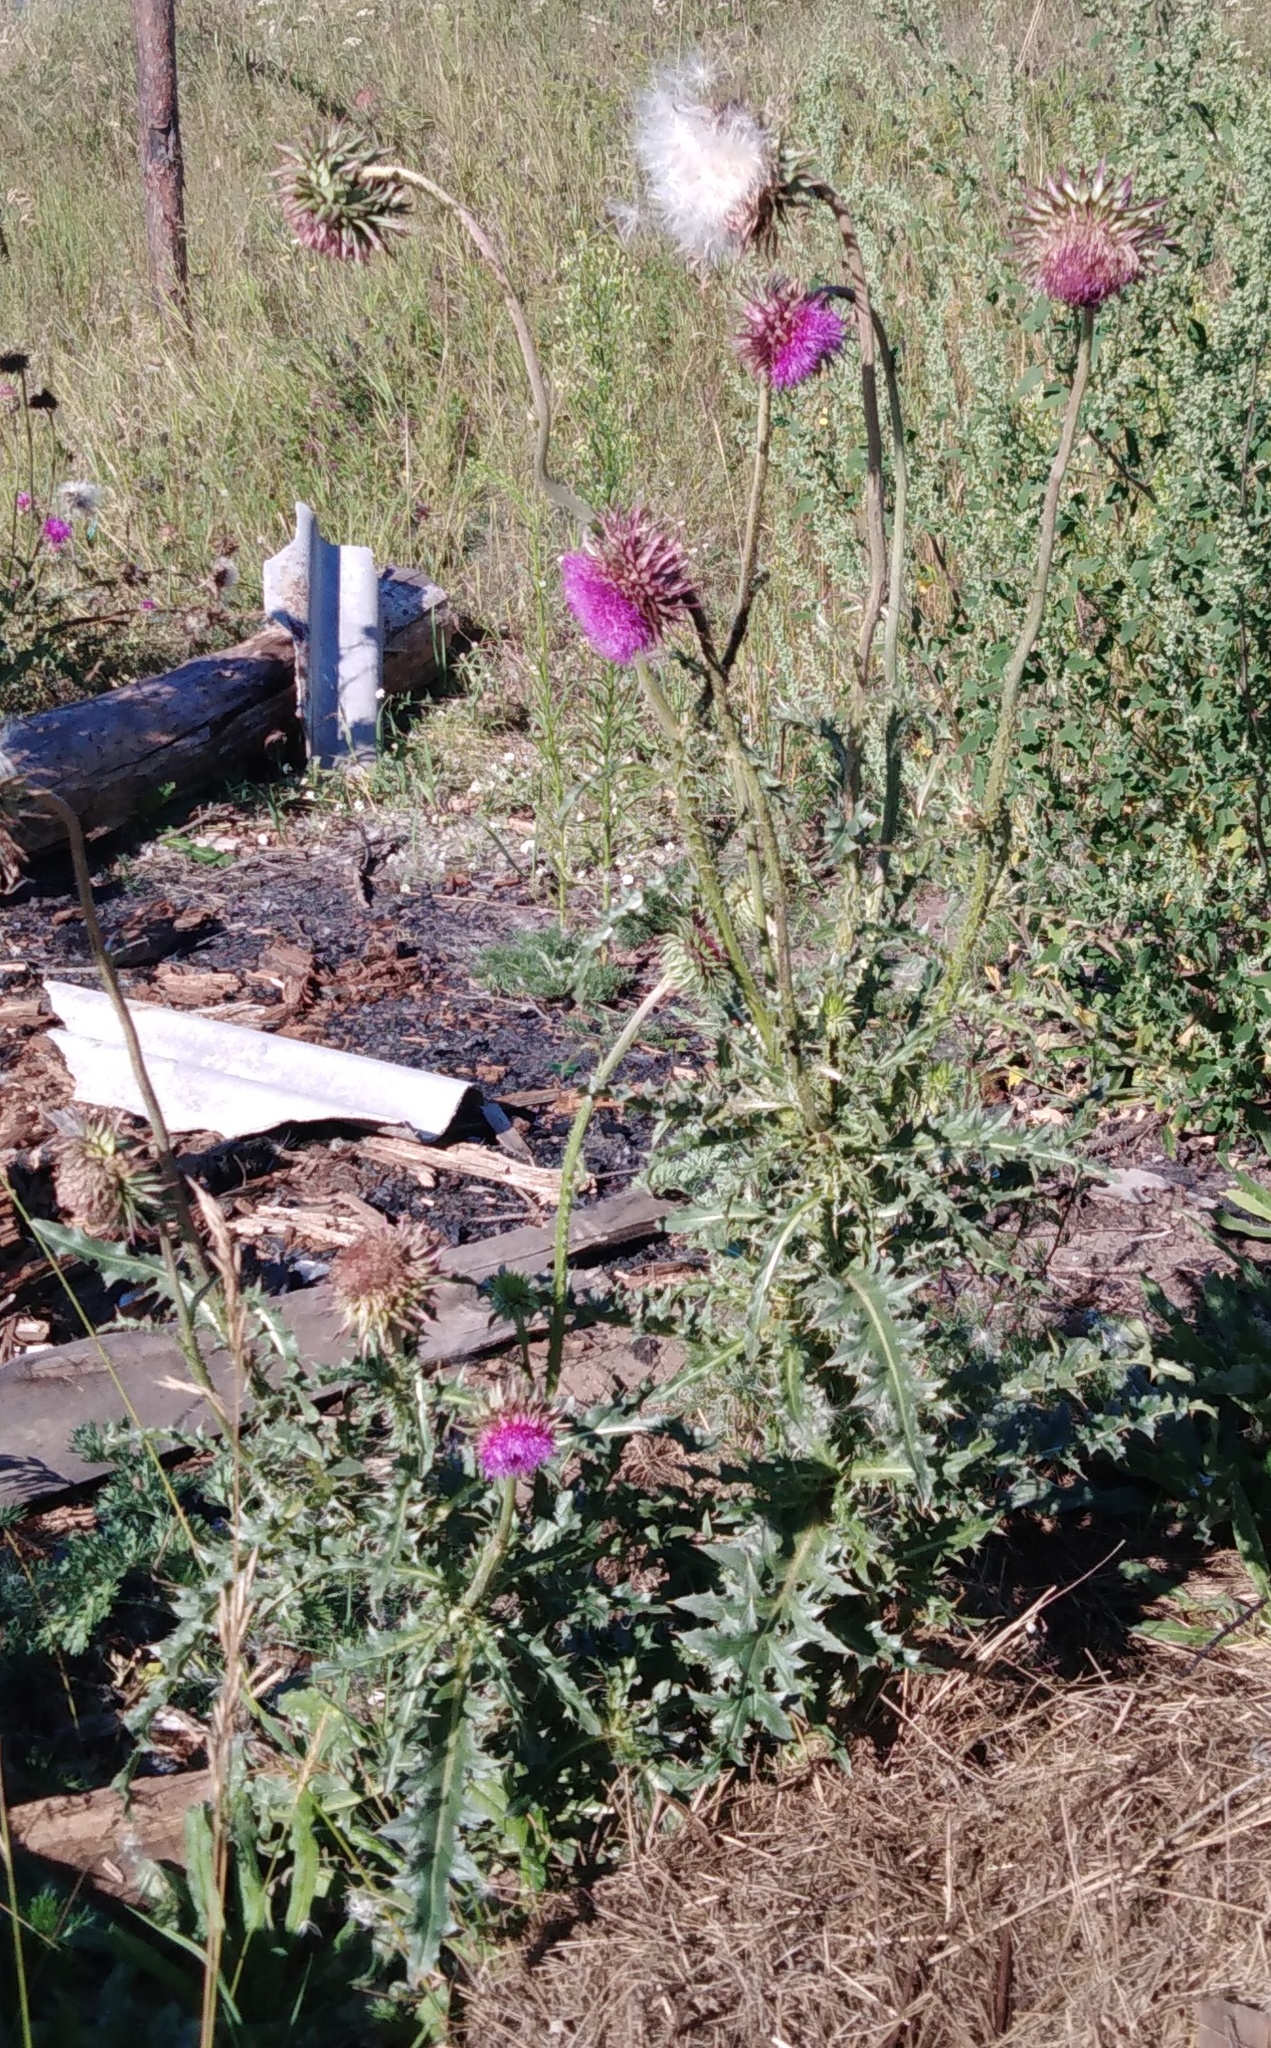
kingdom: Plantae
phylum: Tracheophyta
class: Magnoliopsida
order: Asterales
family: Asteraceae
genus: Carduus
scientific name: Carduus nutans
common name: Musk thistle
